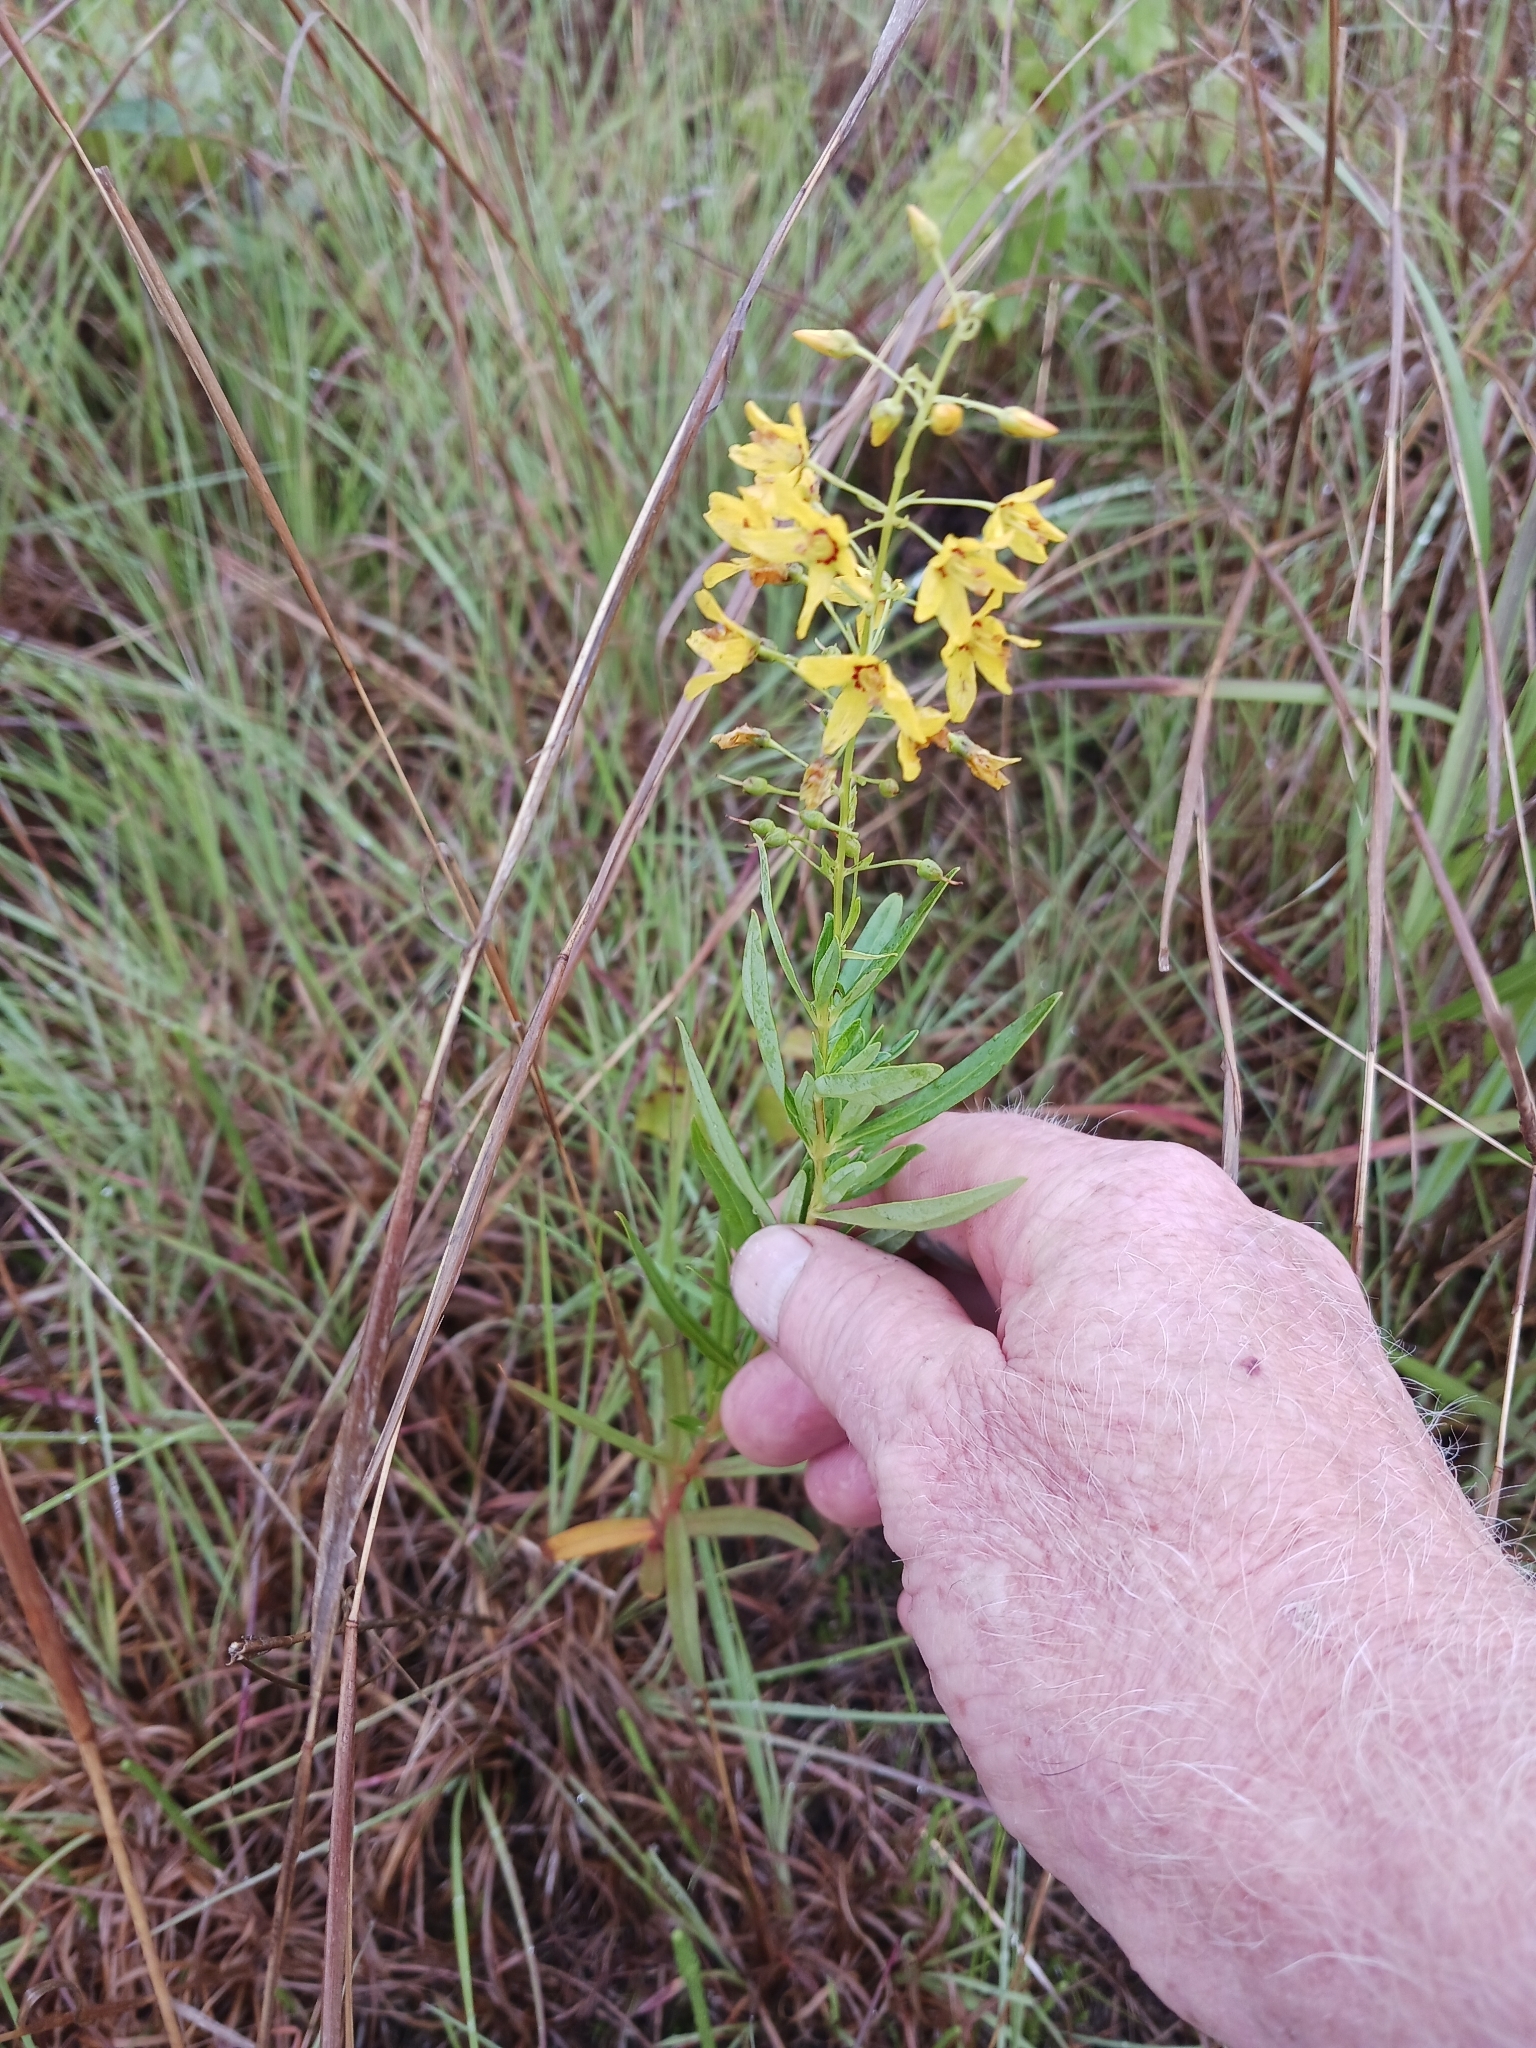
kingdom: Plantae
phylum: Tracheophyta
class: Magnoliopsida
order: Ericales
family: Primulaceae
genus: Lysimachia
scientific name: Lysimachia terrestris
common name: Lake loosestrife
